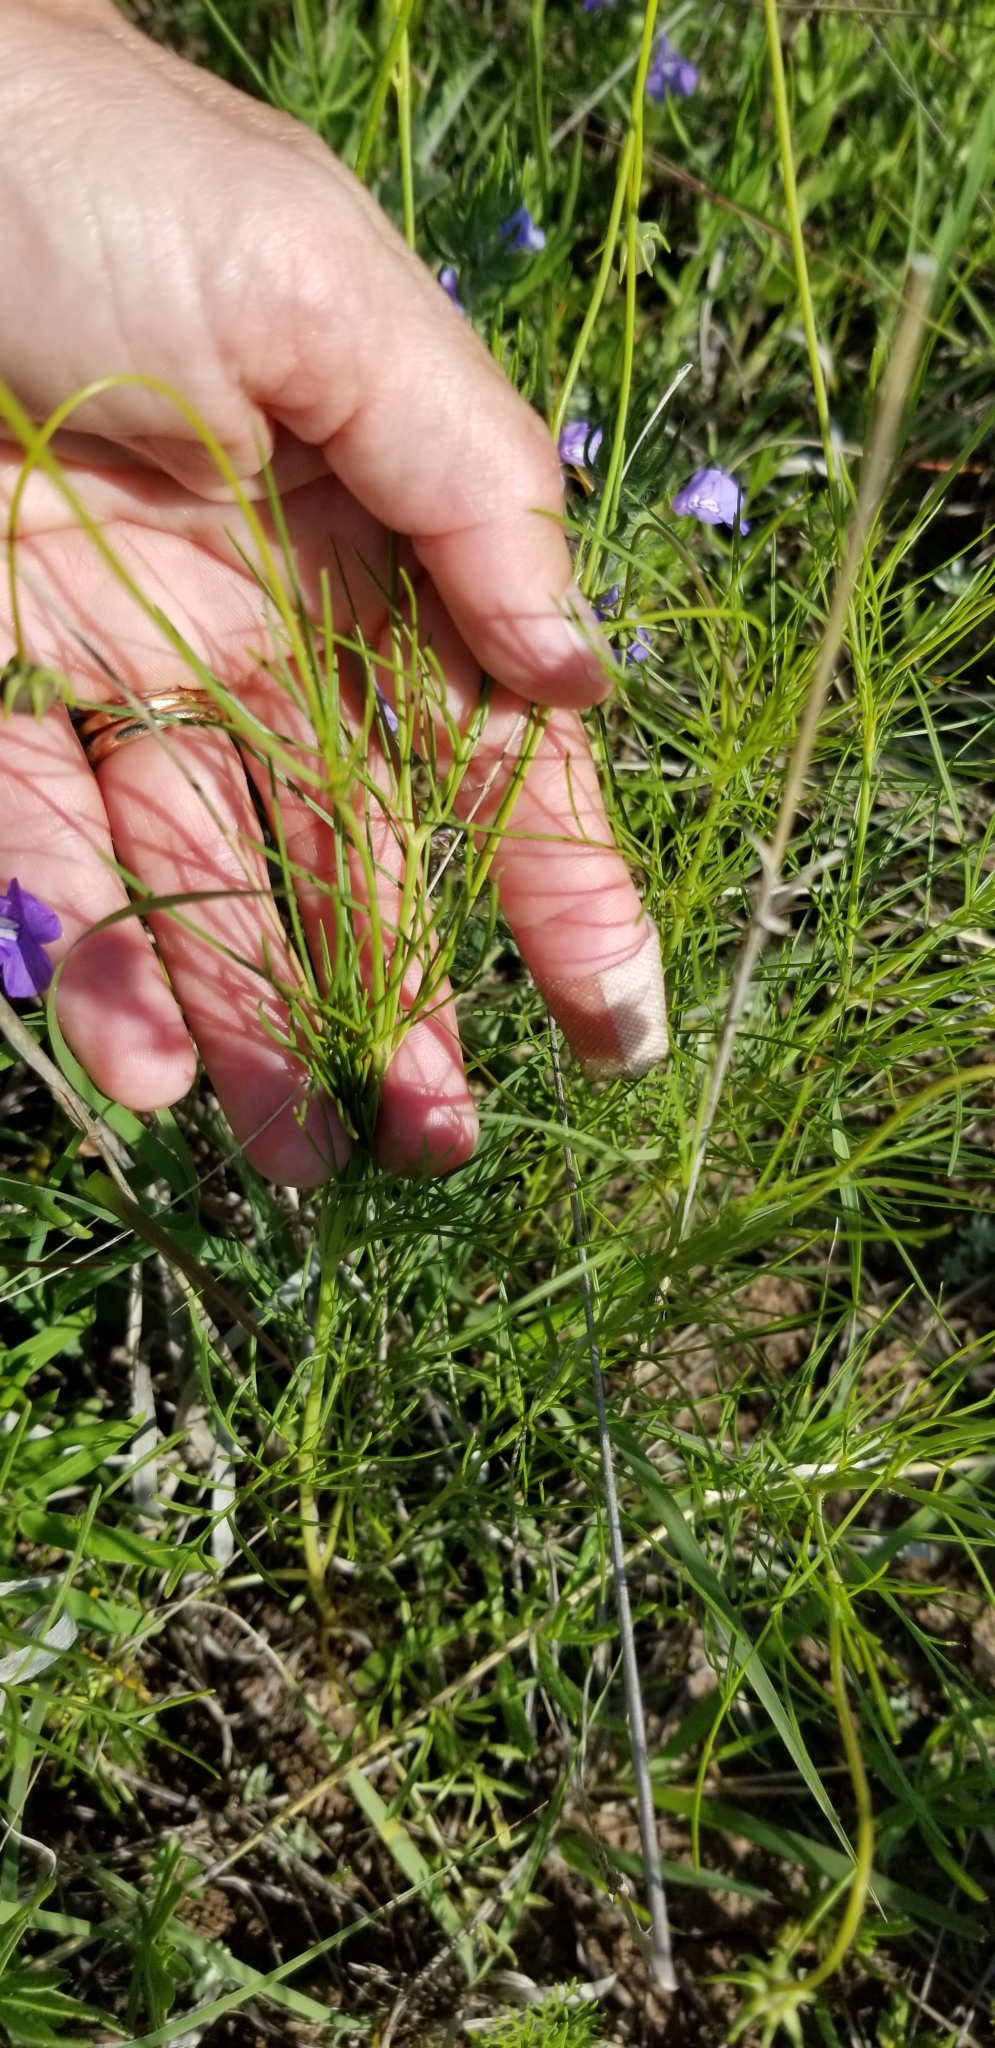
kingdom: Plantae
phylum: Tracheophyta
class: Magnoliopsida
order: Asterales
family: Asteraceae
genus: Thelesperma
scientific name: Thelesperma filifolium
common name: Stiff greenthread
